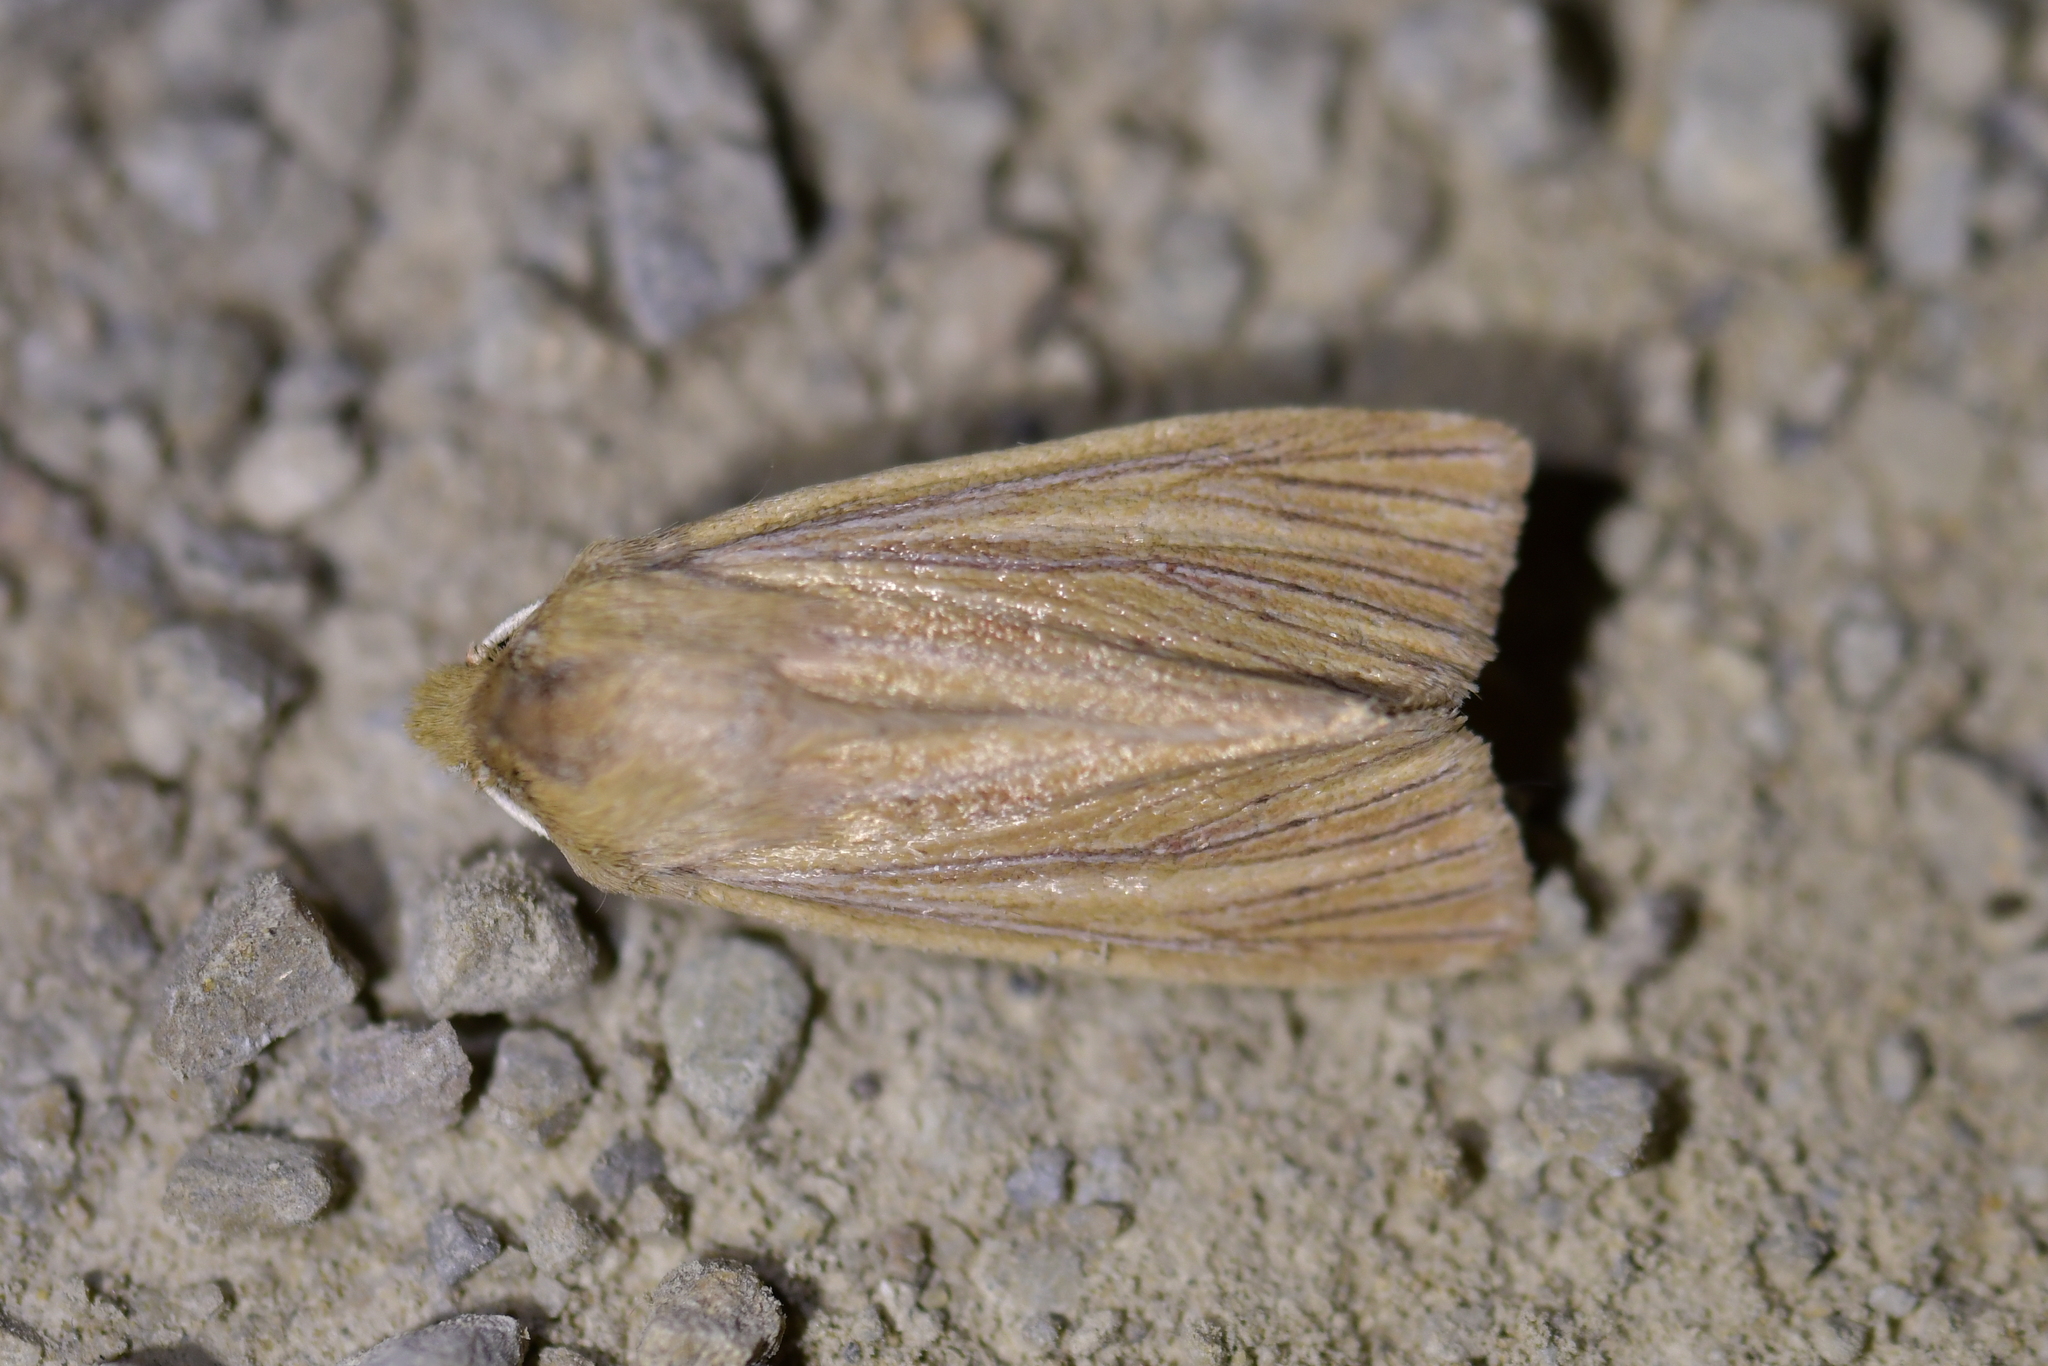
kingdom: Animalia
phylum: Arthropoda
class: Insecta
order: Lepidoptera
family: Noctuidae
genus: Ichneutica
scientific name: Ichneutica arotis
